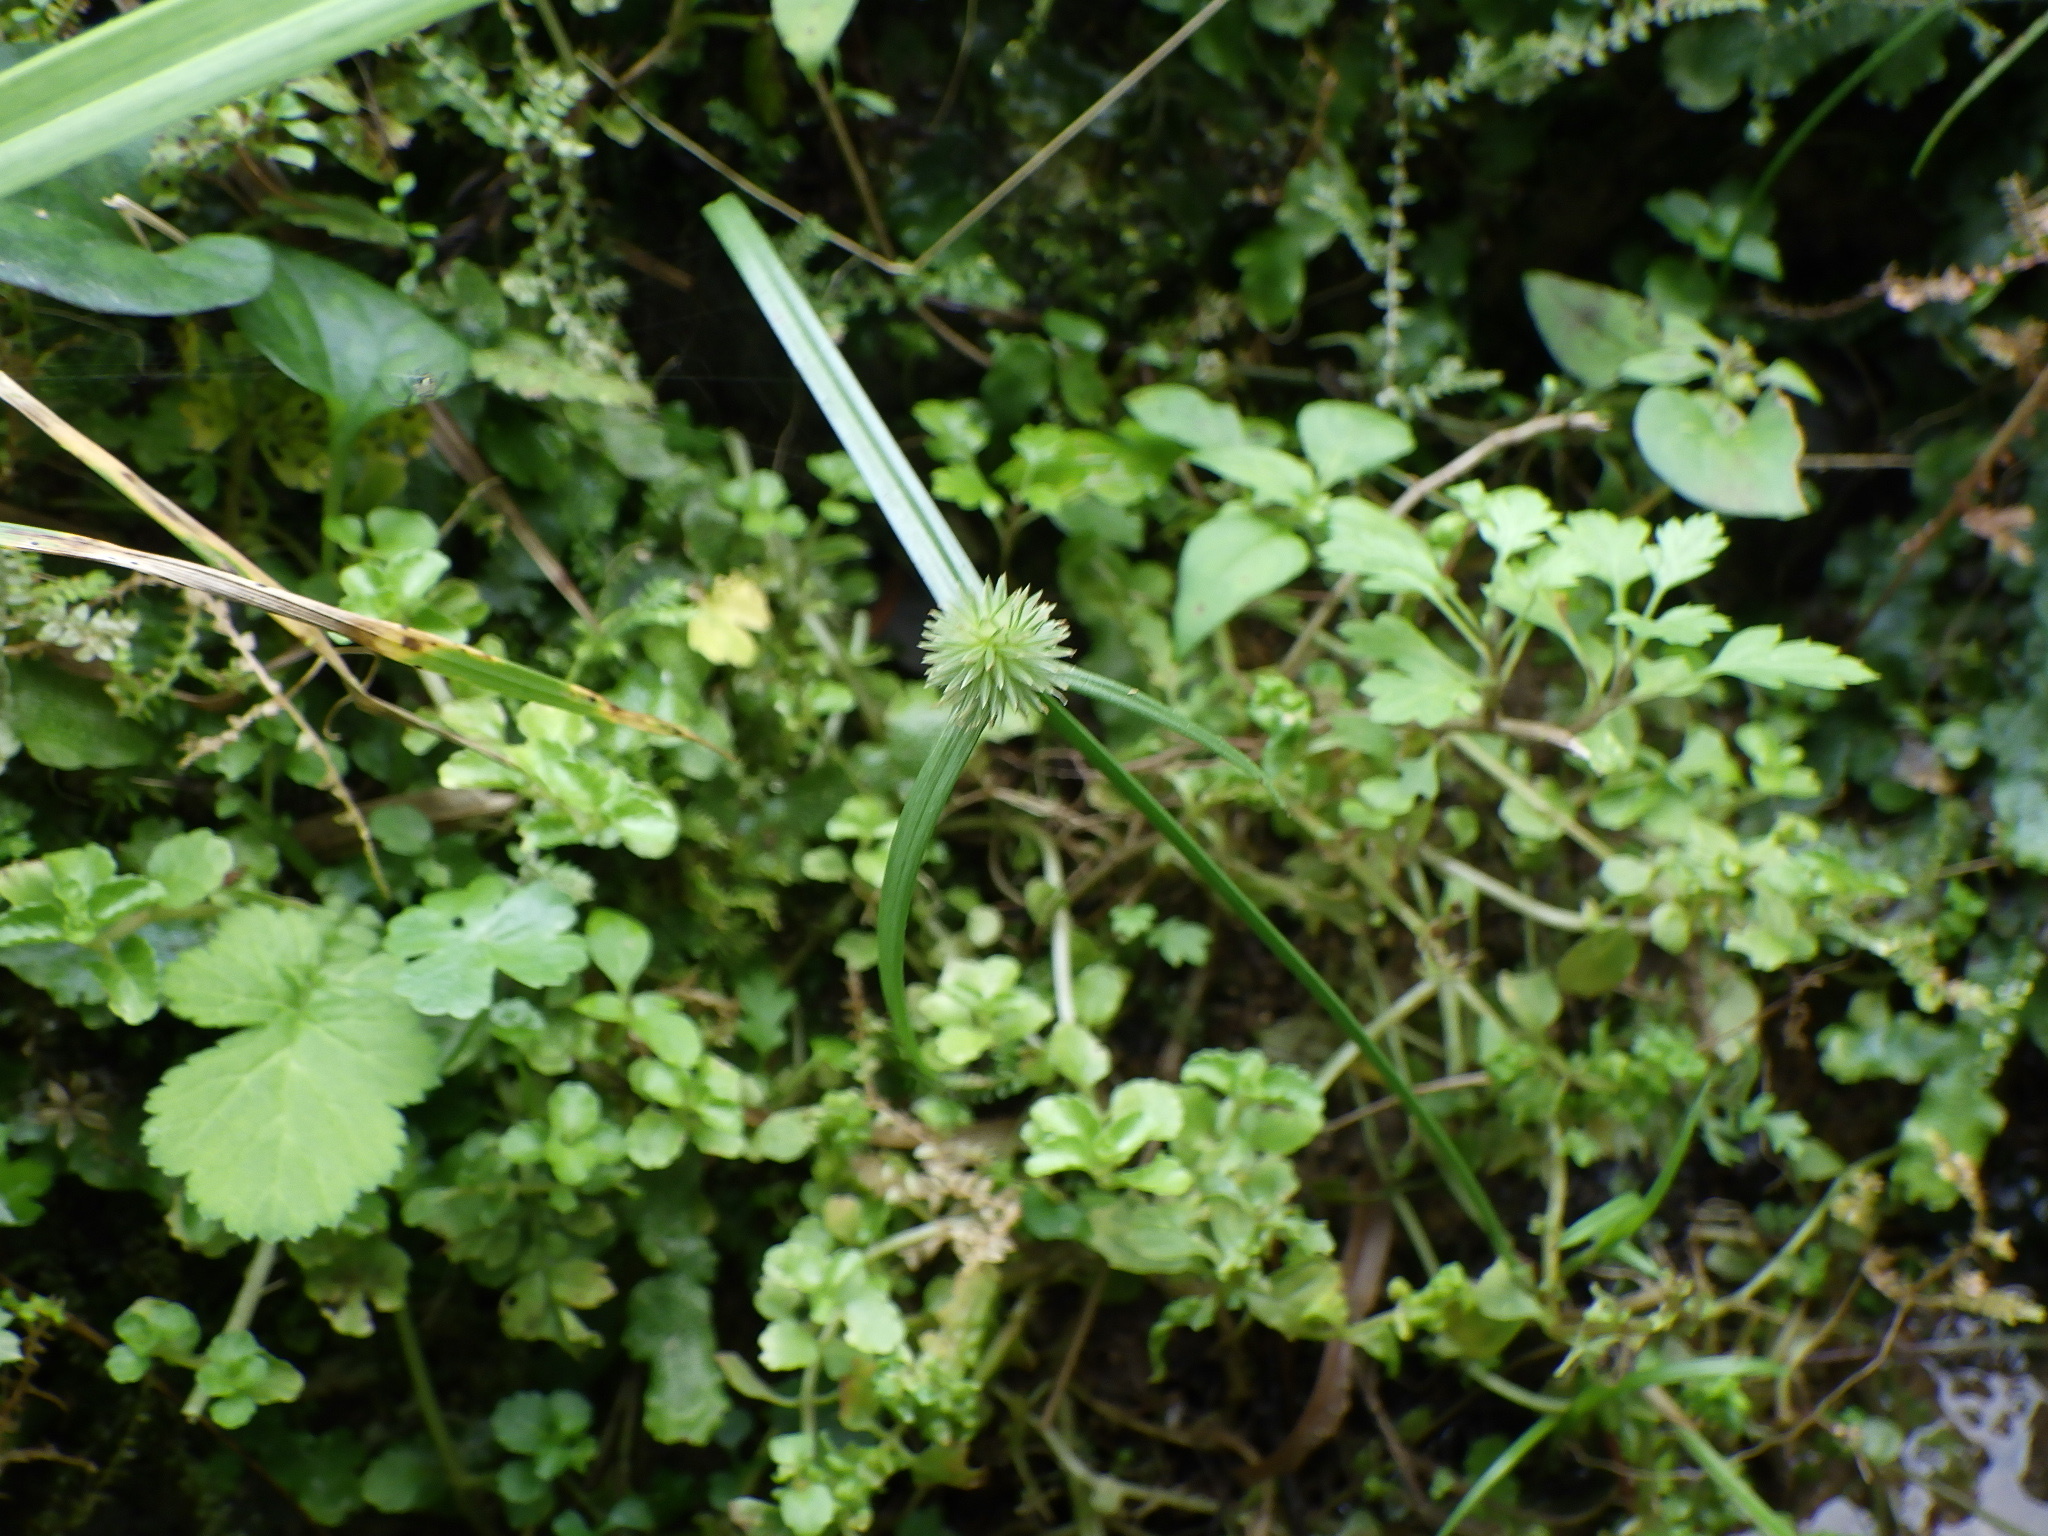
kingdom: Plantae
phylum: Tracheophyta
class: Liliopsida
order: Poales
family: Cyperaceae
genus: Cyperus
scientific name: Cyperus brevifolioides
